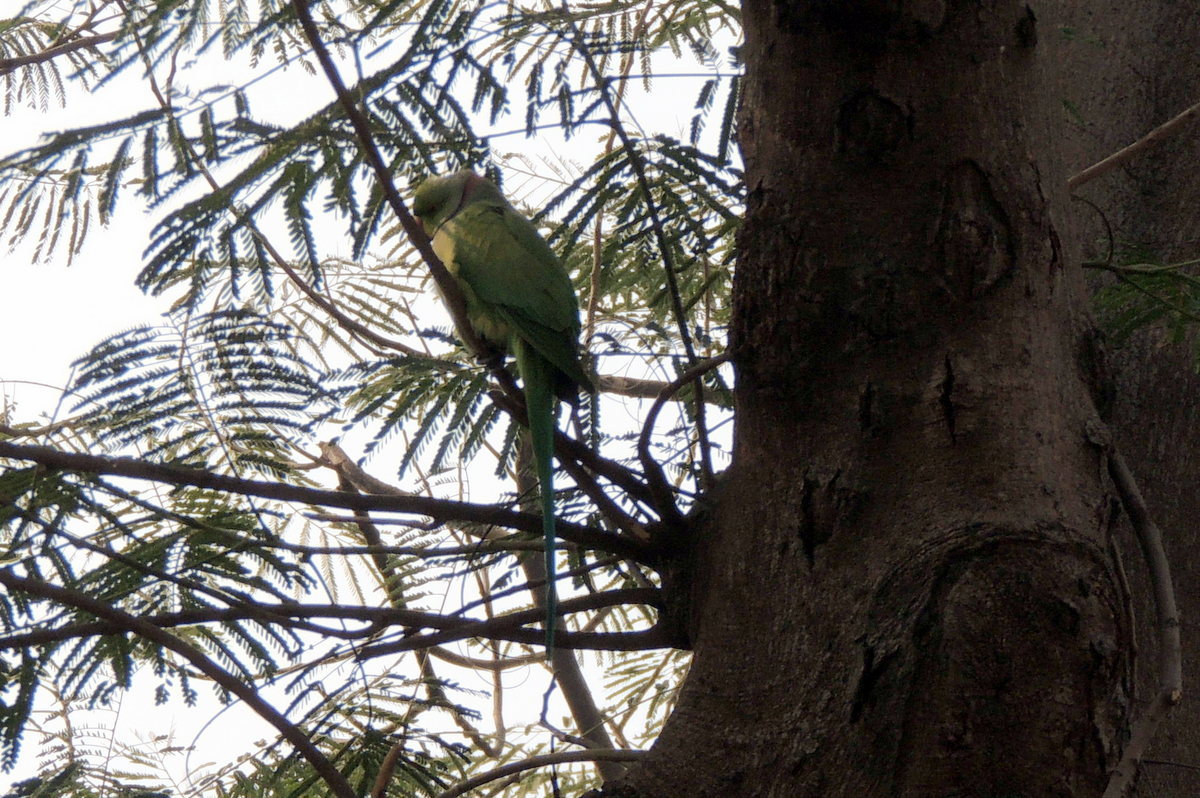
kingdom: Animalia
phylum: Chordata
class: Aves
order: Psittaciformes
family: Psittacidae
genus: Psittacula
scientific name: Psittacula krameri
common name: Rose-ringed parakeet
